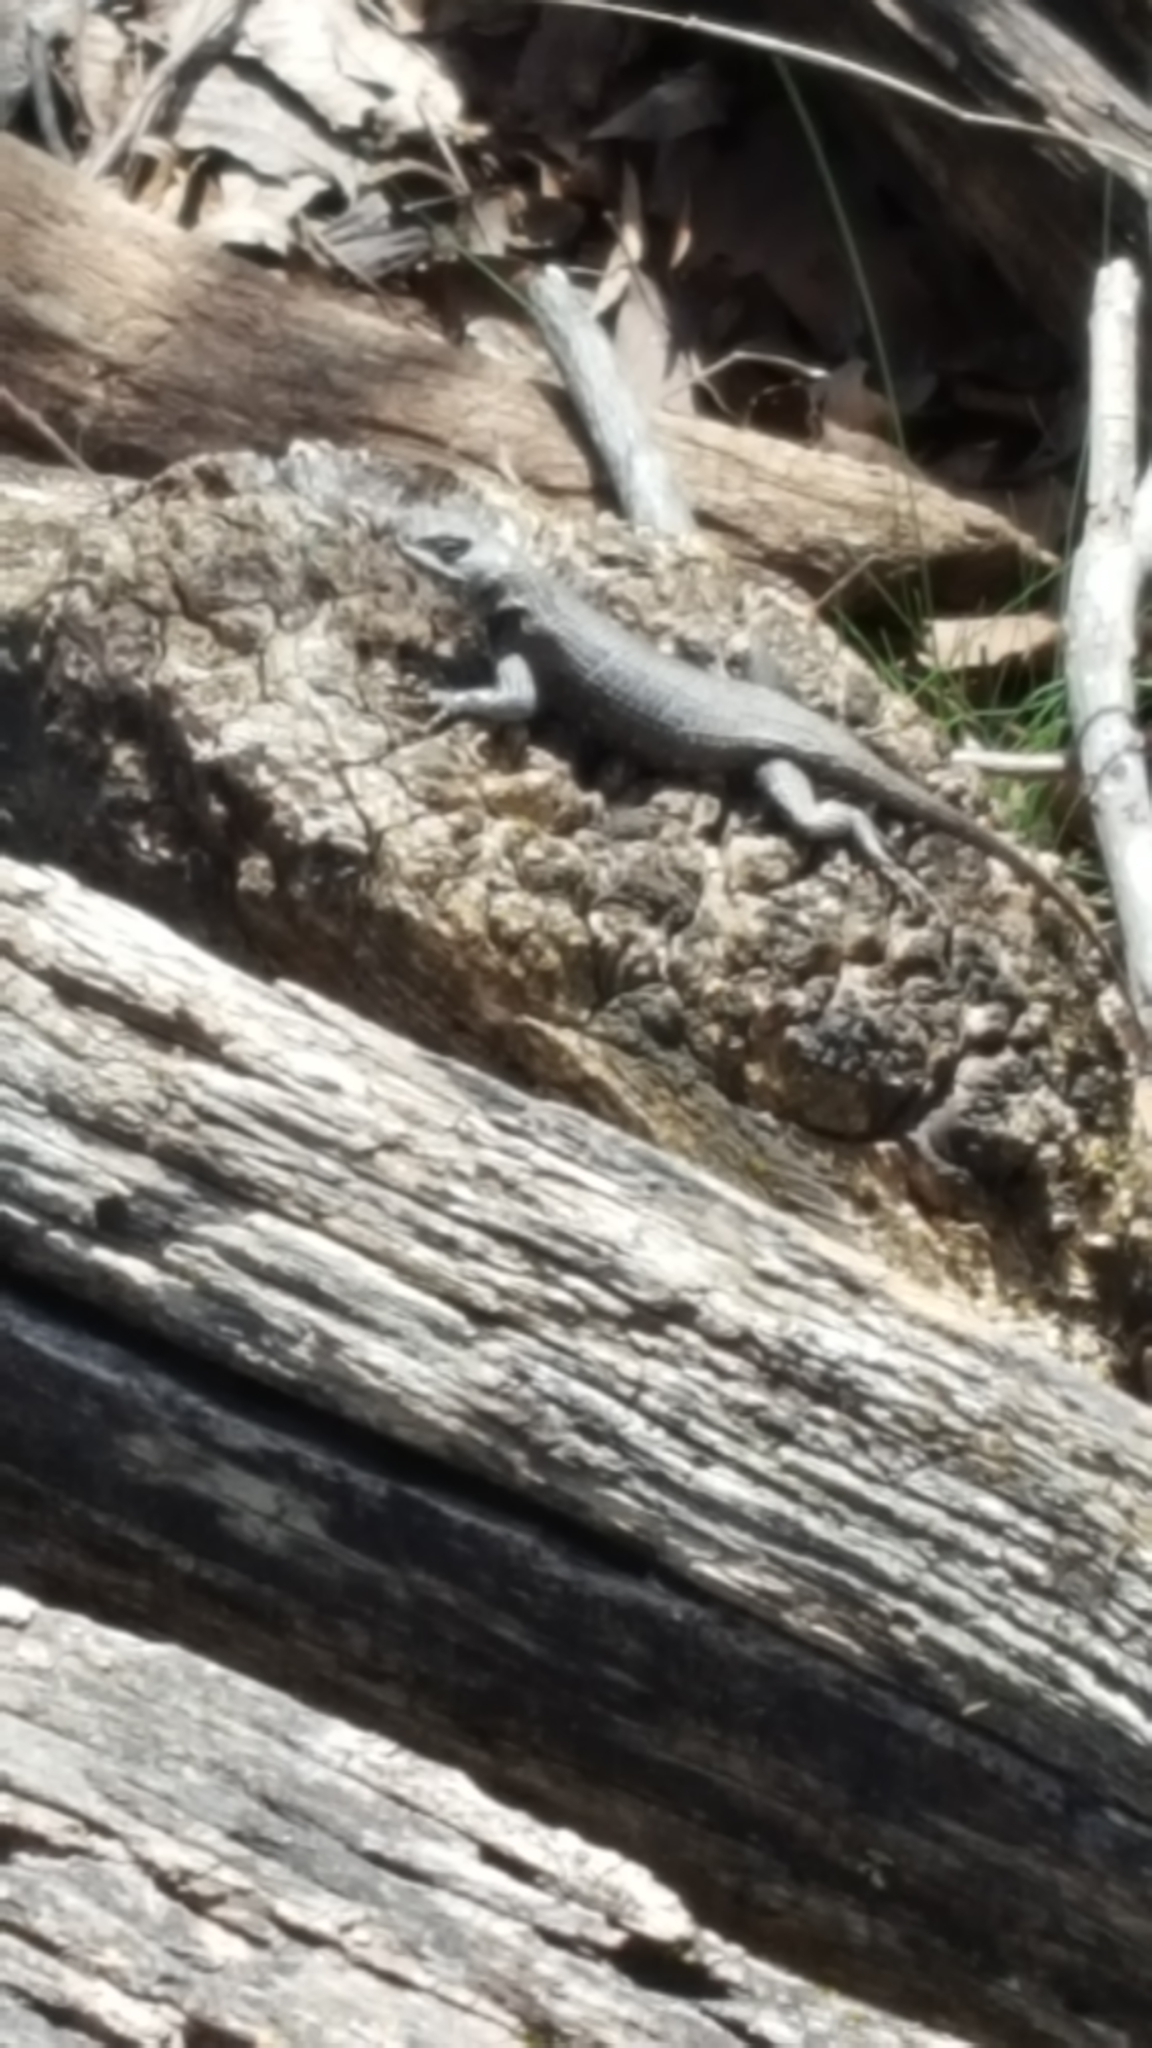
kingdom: Animalia
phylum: Chordata
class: Squamata
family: Phrynosomatidae
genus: Sceloporus
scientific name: Sceloporus undulatus
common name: Eastern fence lizard
